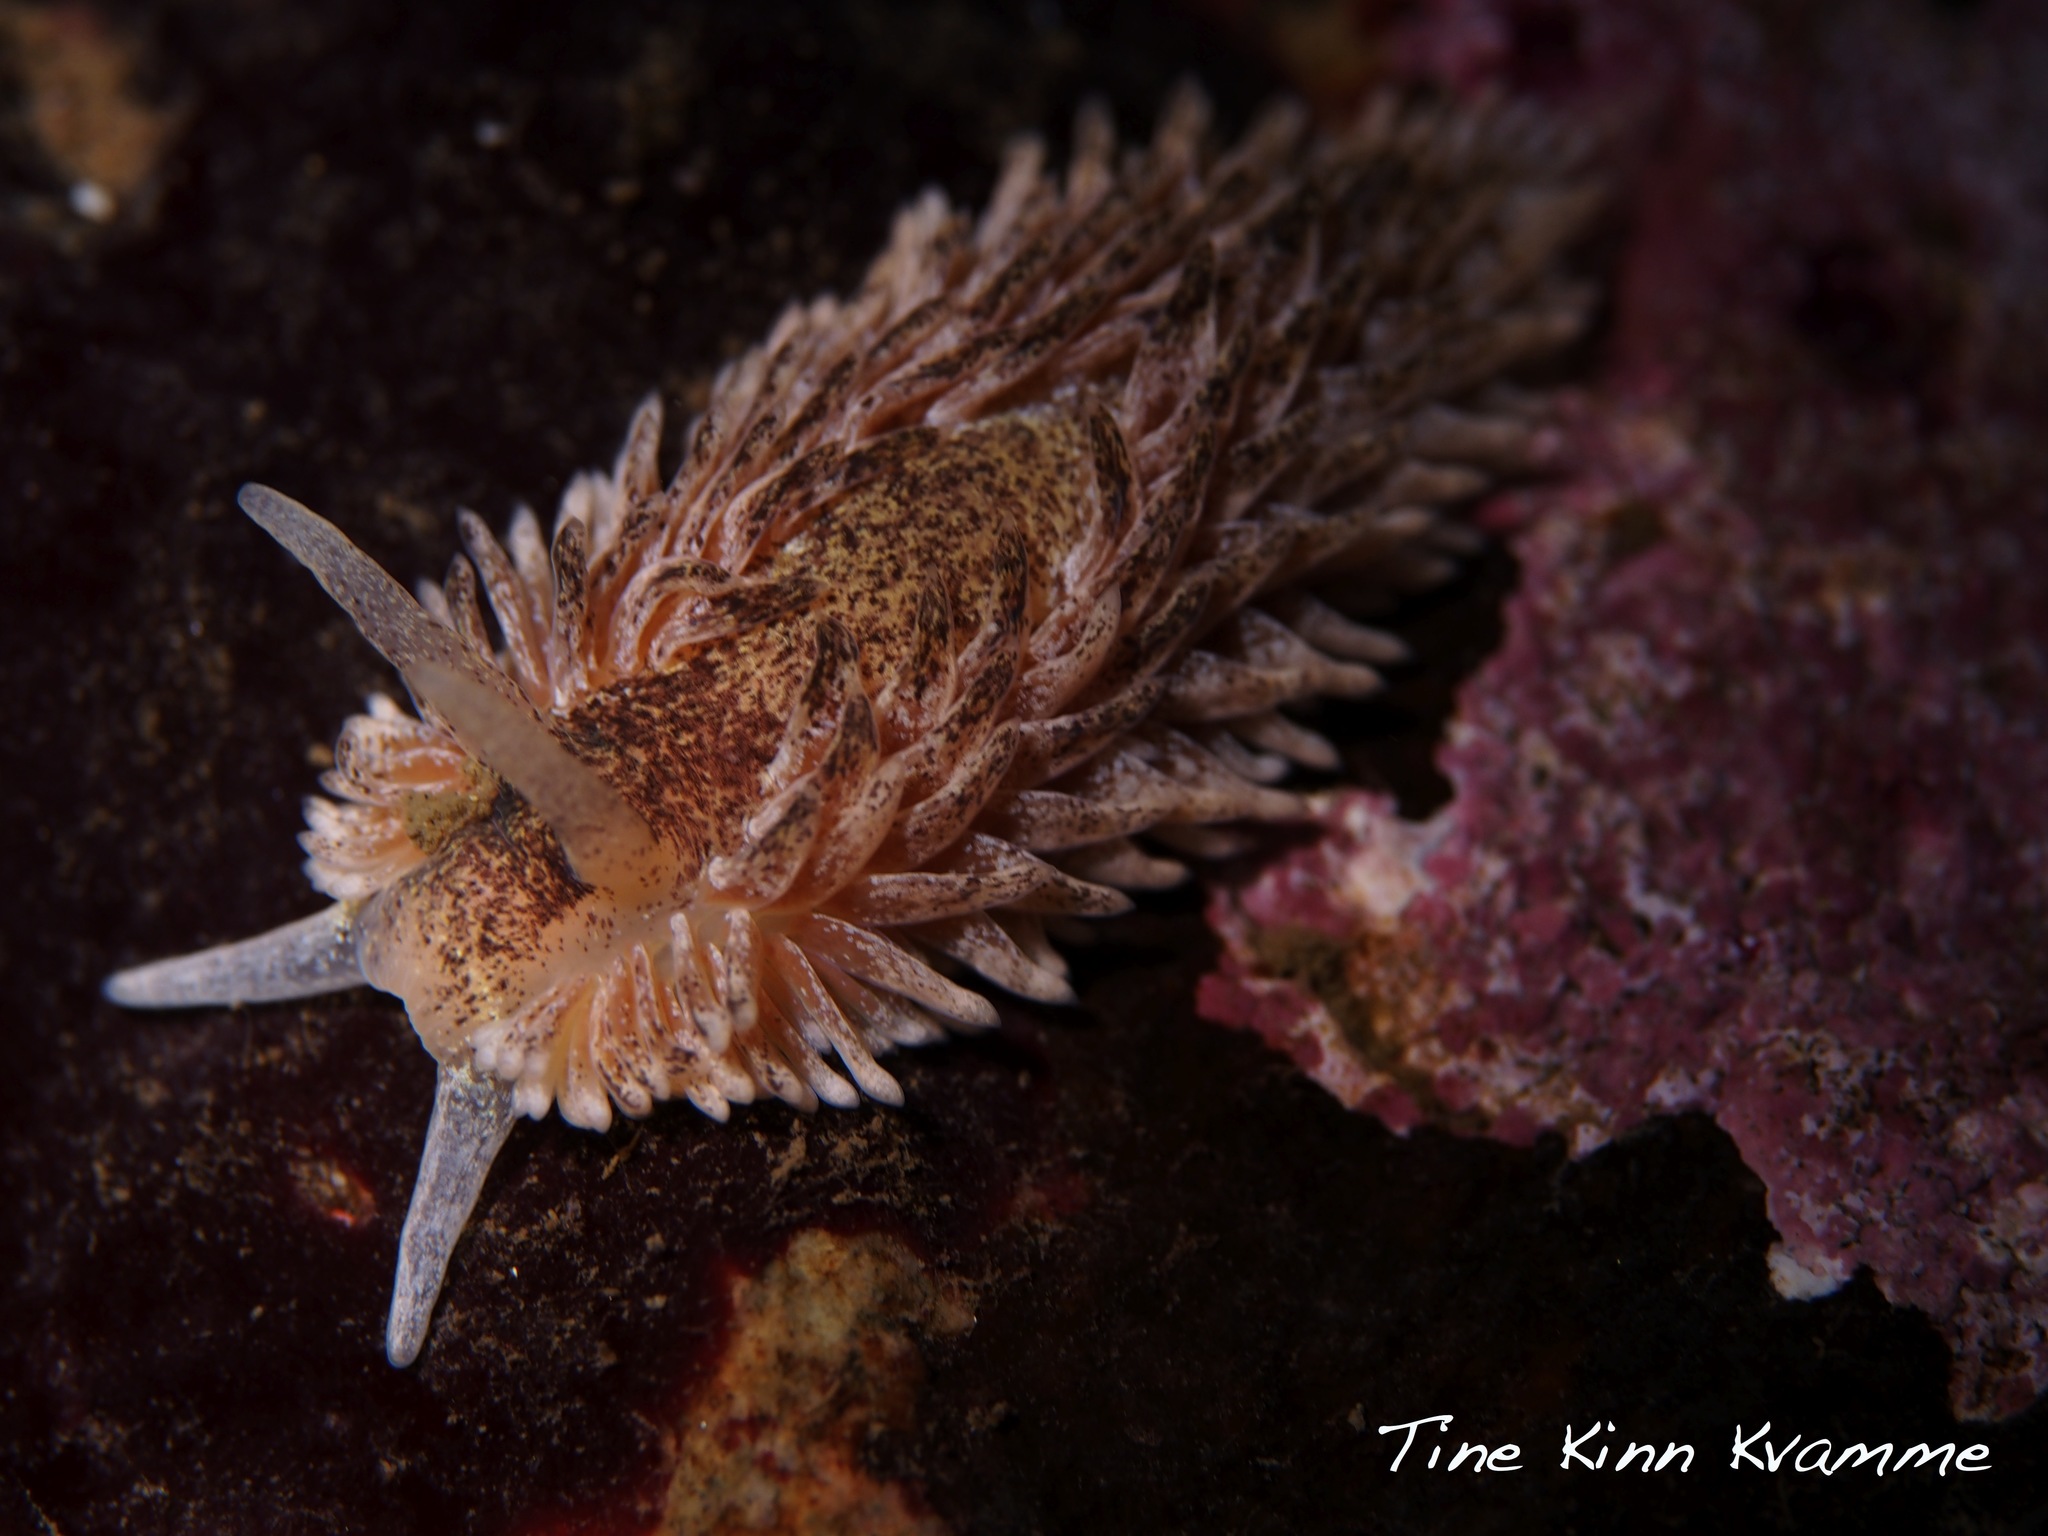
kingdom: Animalia
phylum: Mollusca
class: Gastropoda
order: Nudibranchia
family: Aeolidiidae
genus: Aeolidia
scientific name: Aeolidia papillosa
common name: Common grey sea slug
